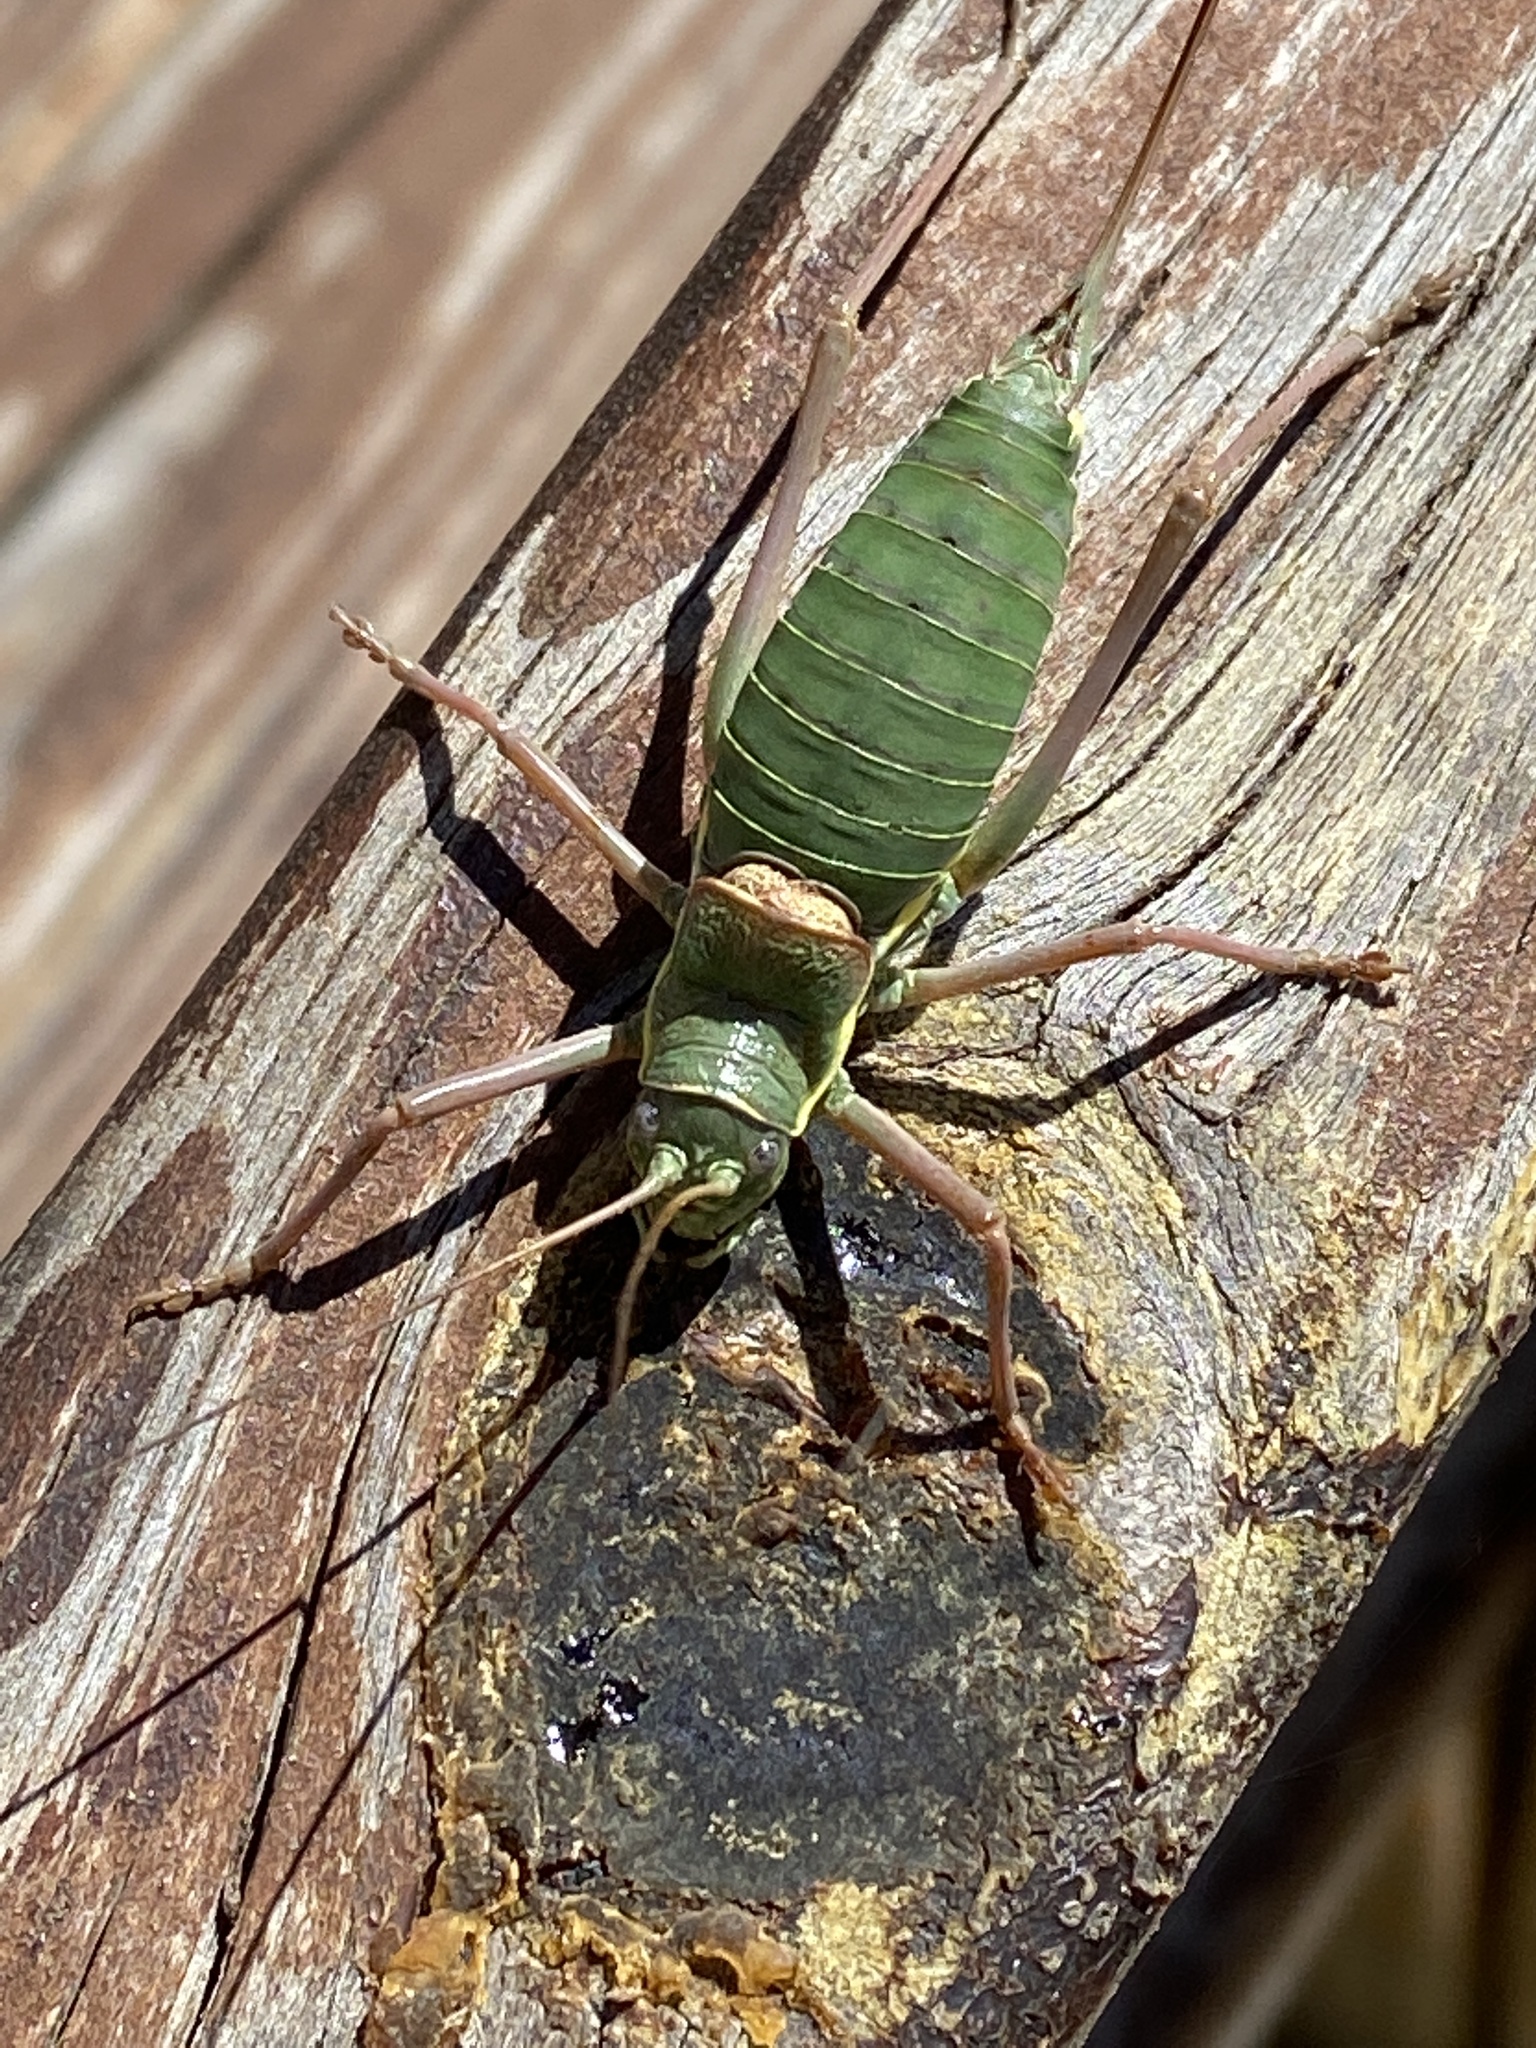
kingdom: Animalia
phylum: Arthropoda
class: Insecta
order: Orthoptera
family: Tettigoniidae
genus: Ephippiger
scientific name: Ephippiger ephippiger
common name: Eastern saddle bush-cricket
